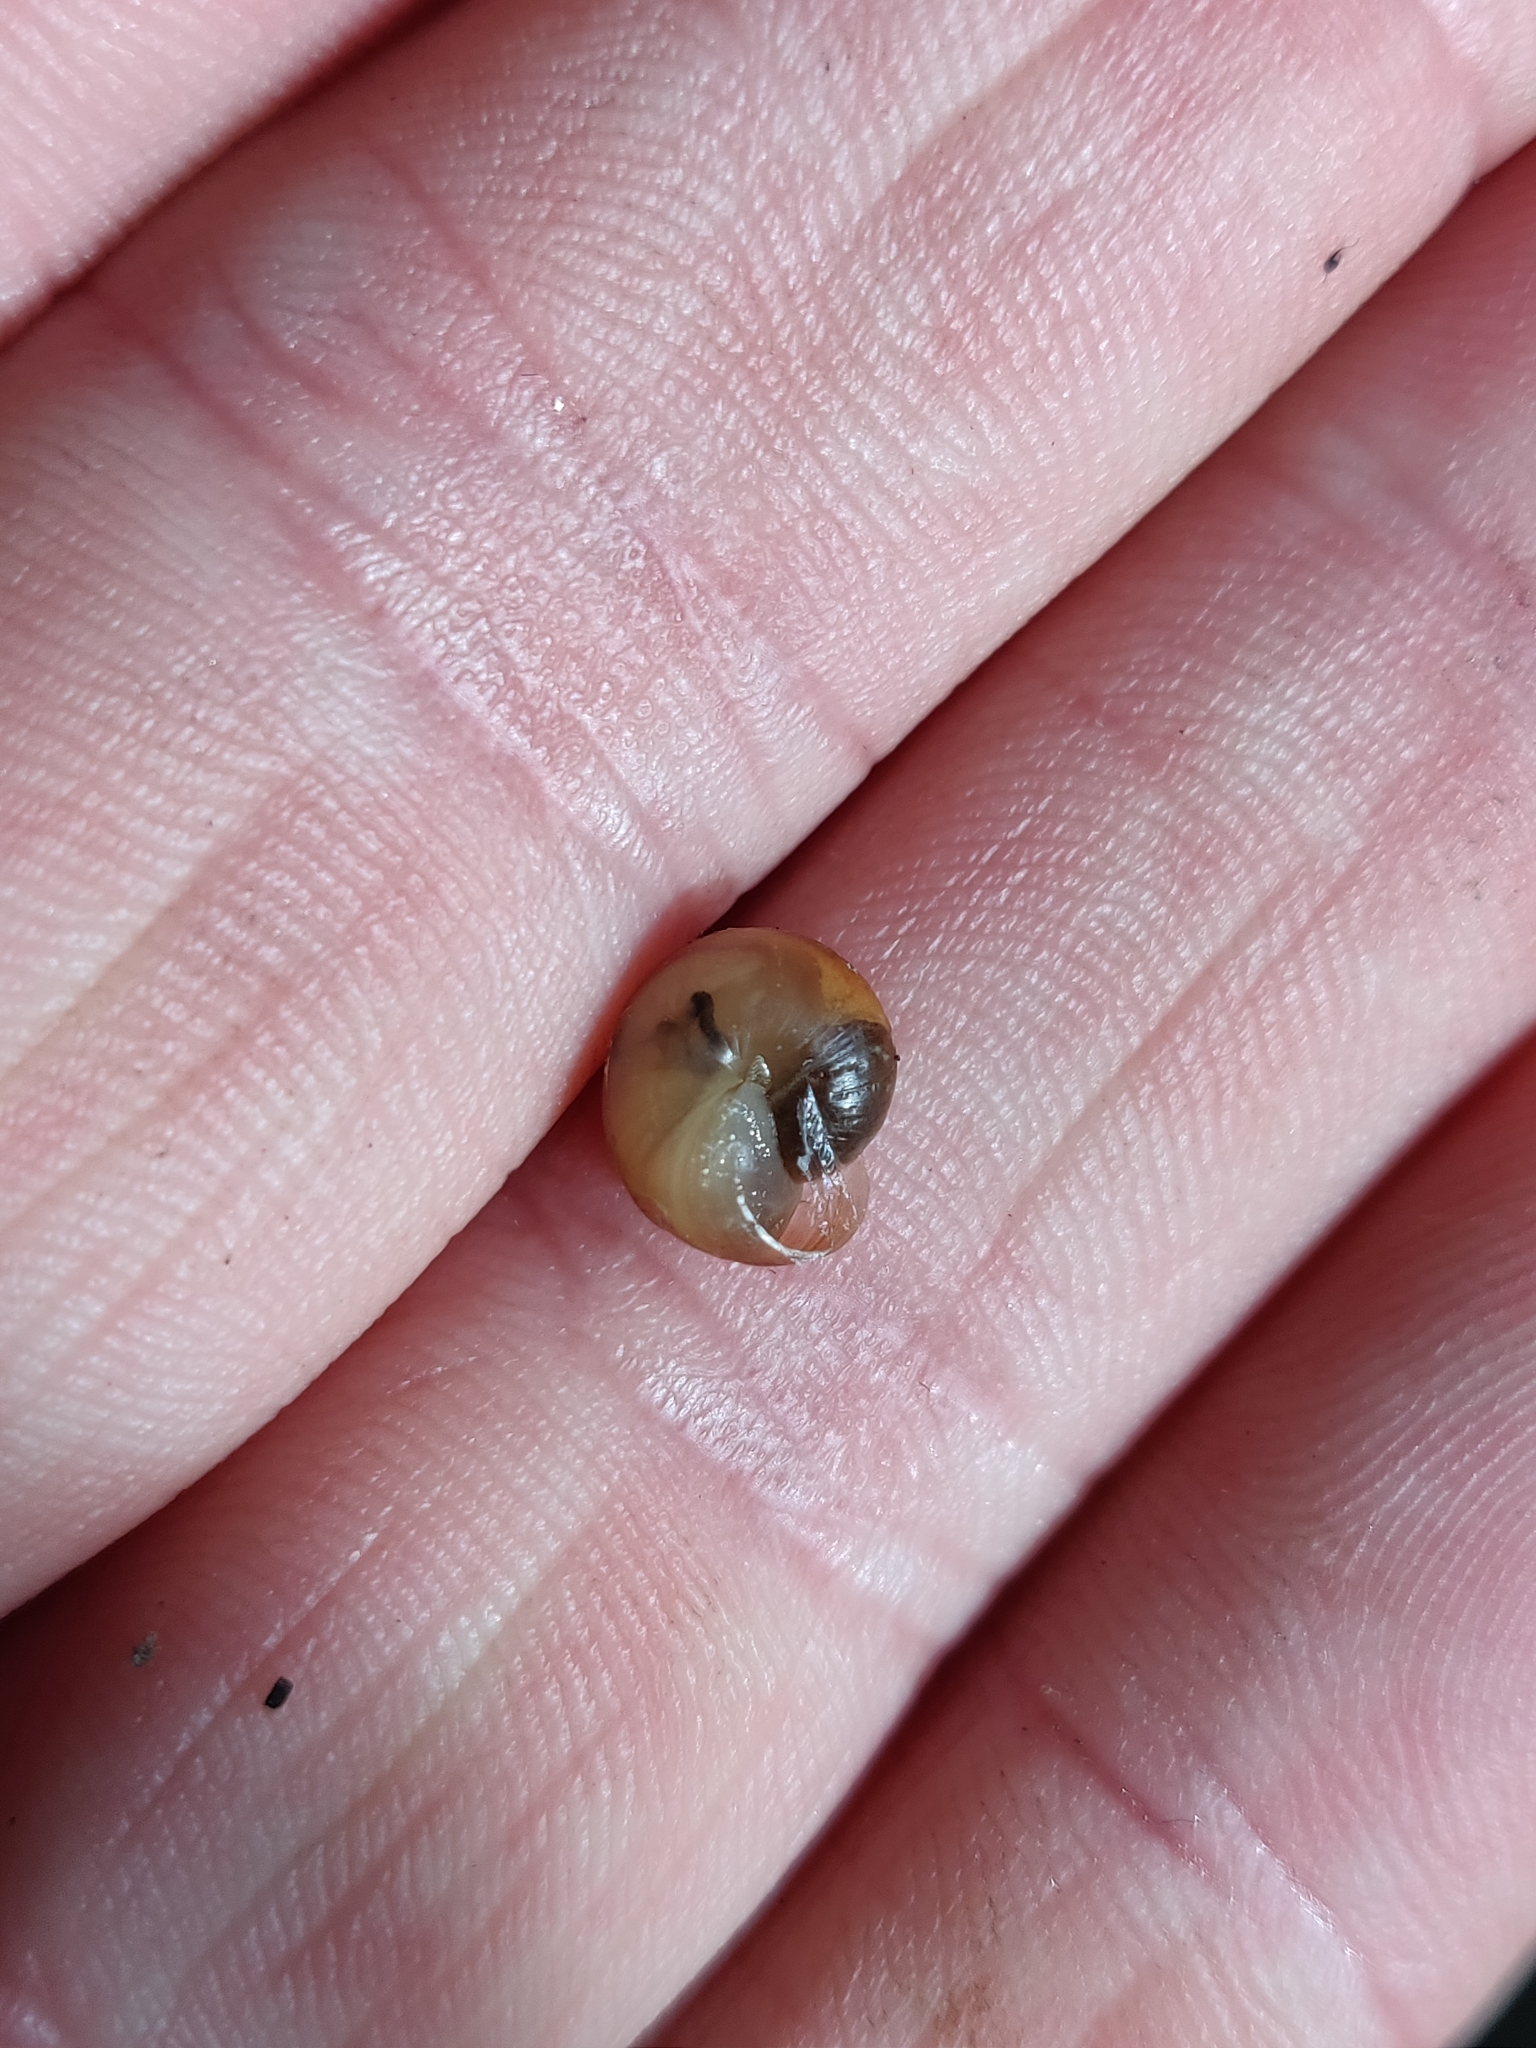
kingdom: Animalia
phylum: Mollusca
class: Gastropoda
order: Stylommatophora
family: Hygromiidae
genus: Monacha
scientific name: Monacha cantiana
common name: Kentish snail
